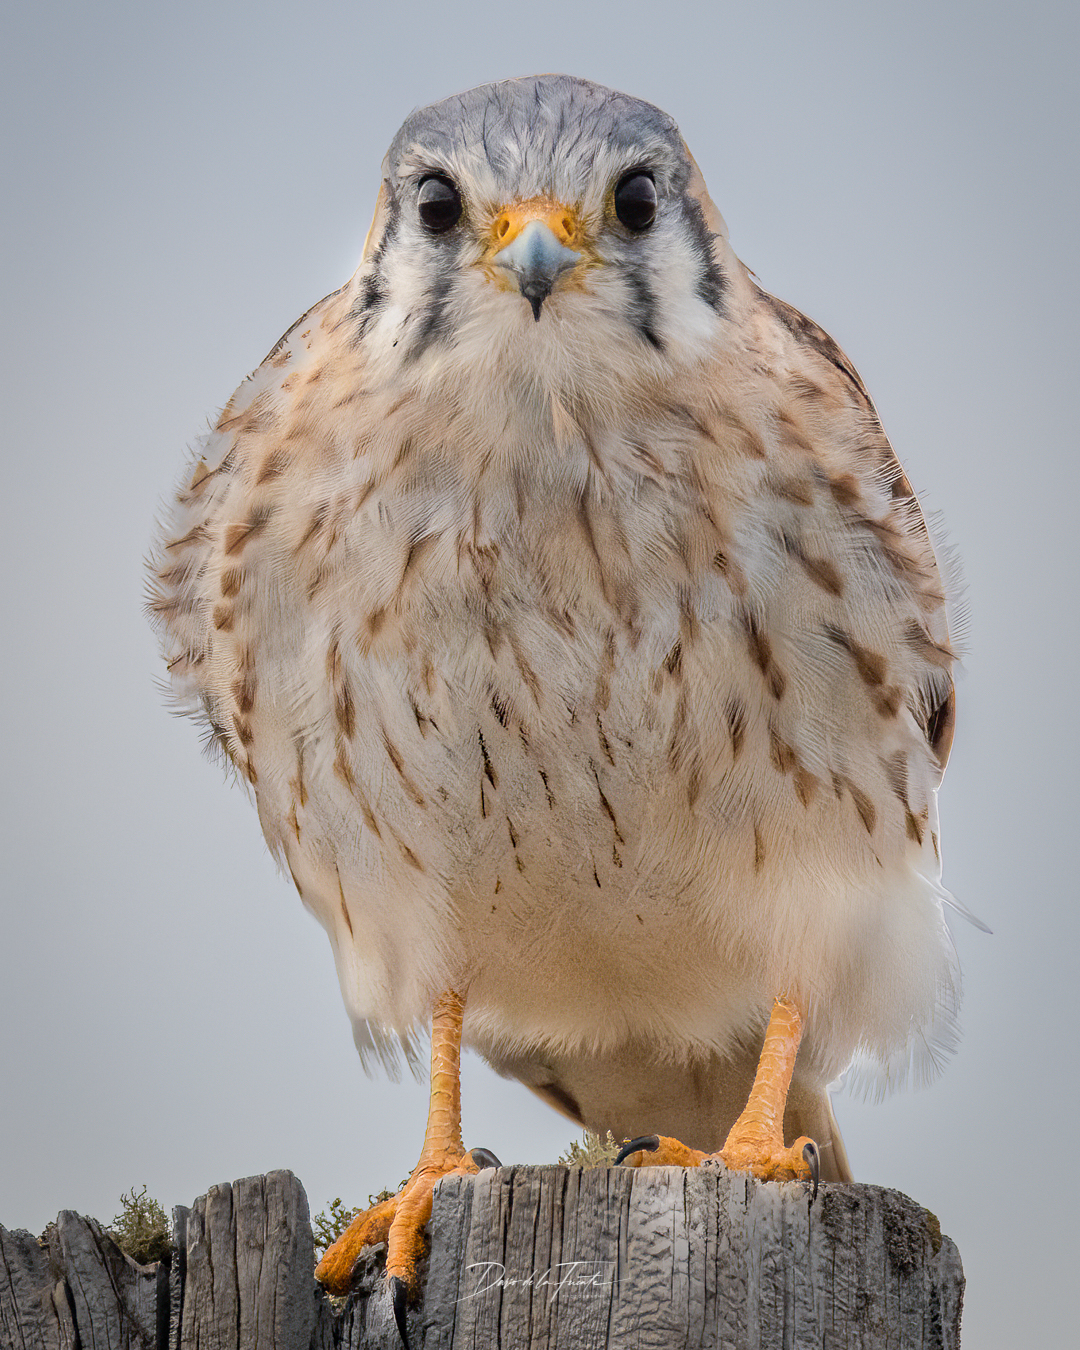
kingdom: Animalia
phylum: Chordata
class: Aves
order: Falconiformes
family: Falconidae
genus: Falco
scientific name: Falco sparverius
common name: American kestrel
